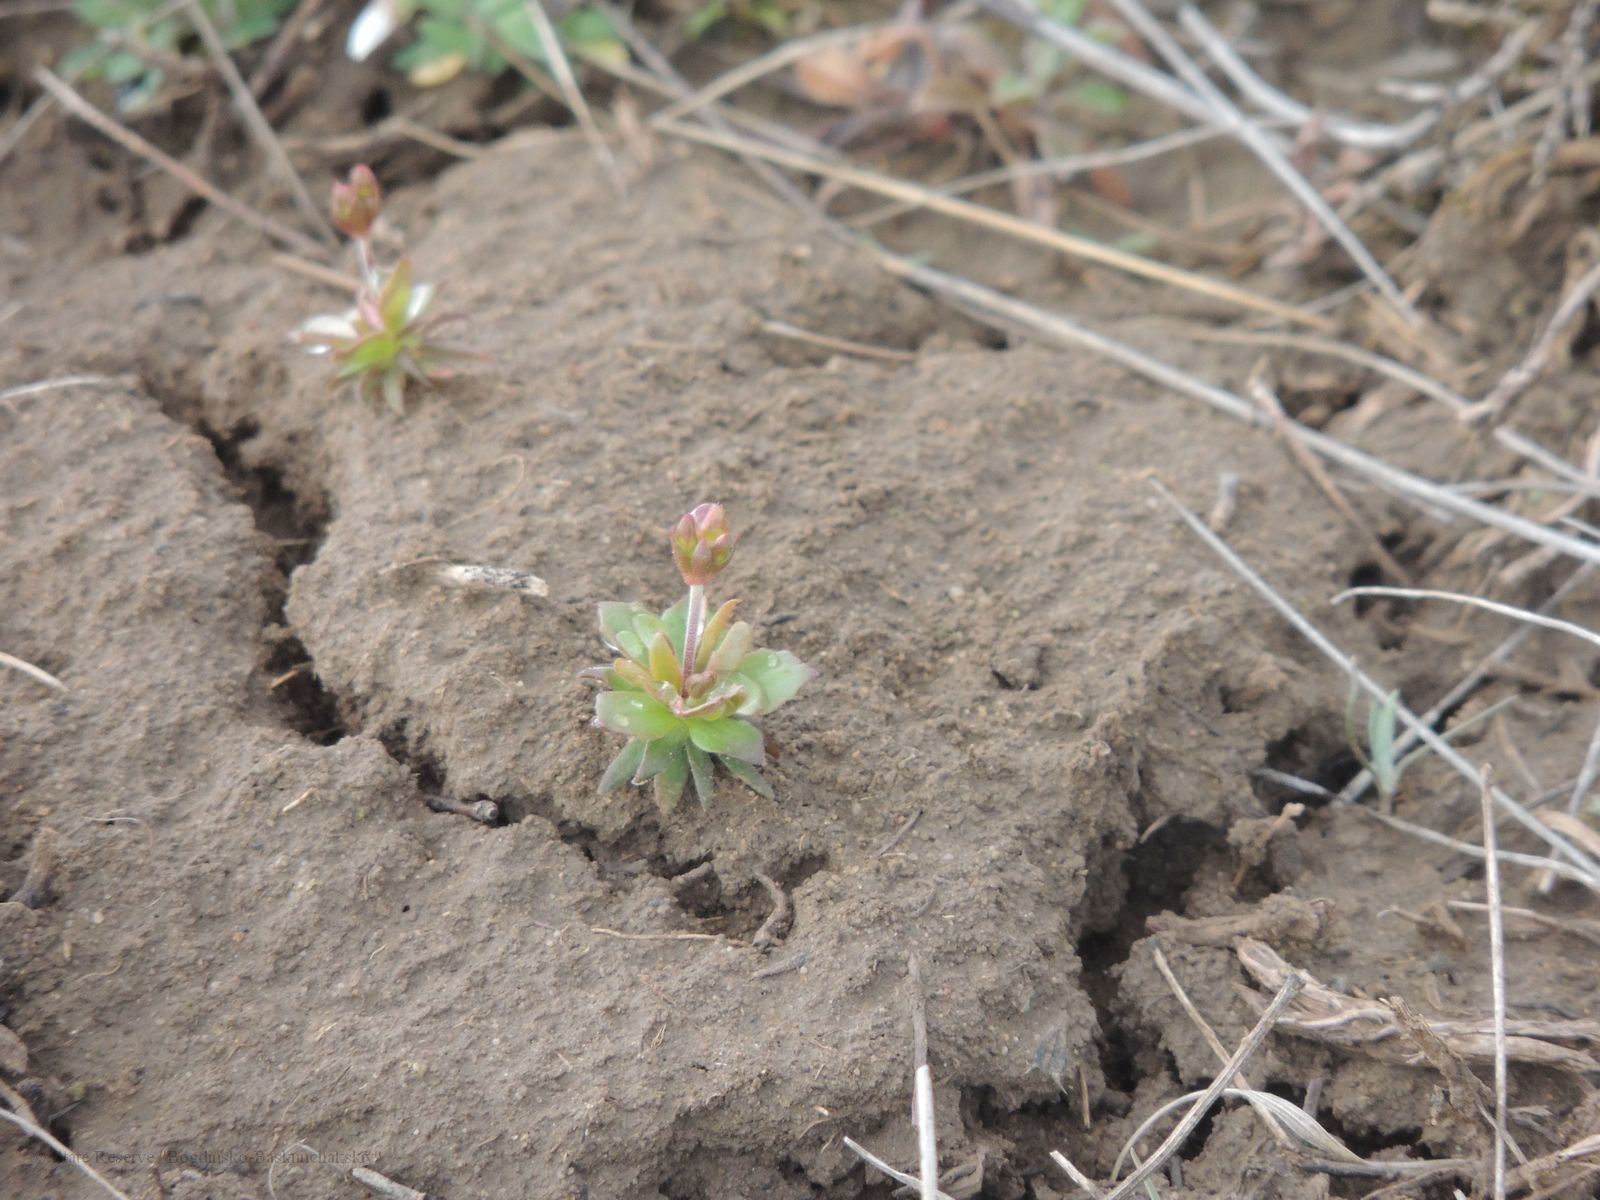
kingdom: Plantae
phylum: Tracheophyta
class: Magnoliopsida
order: Ericales
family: Primulaceae
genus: Androsace
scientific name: Androsace elongata
